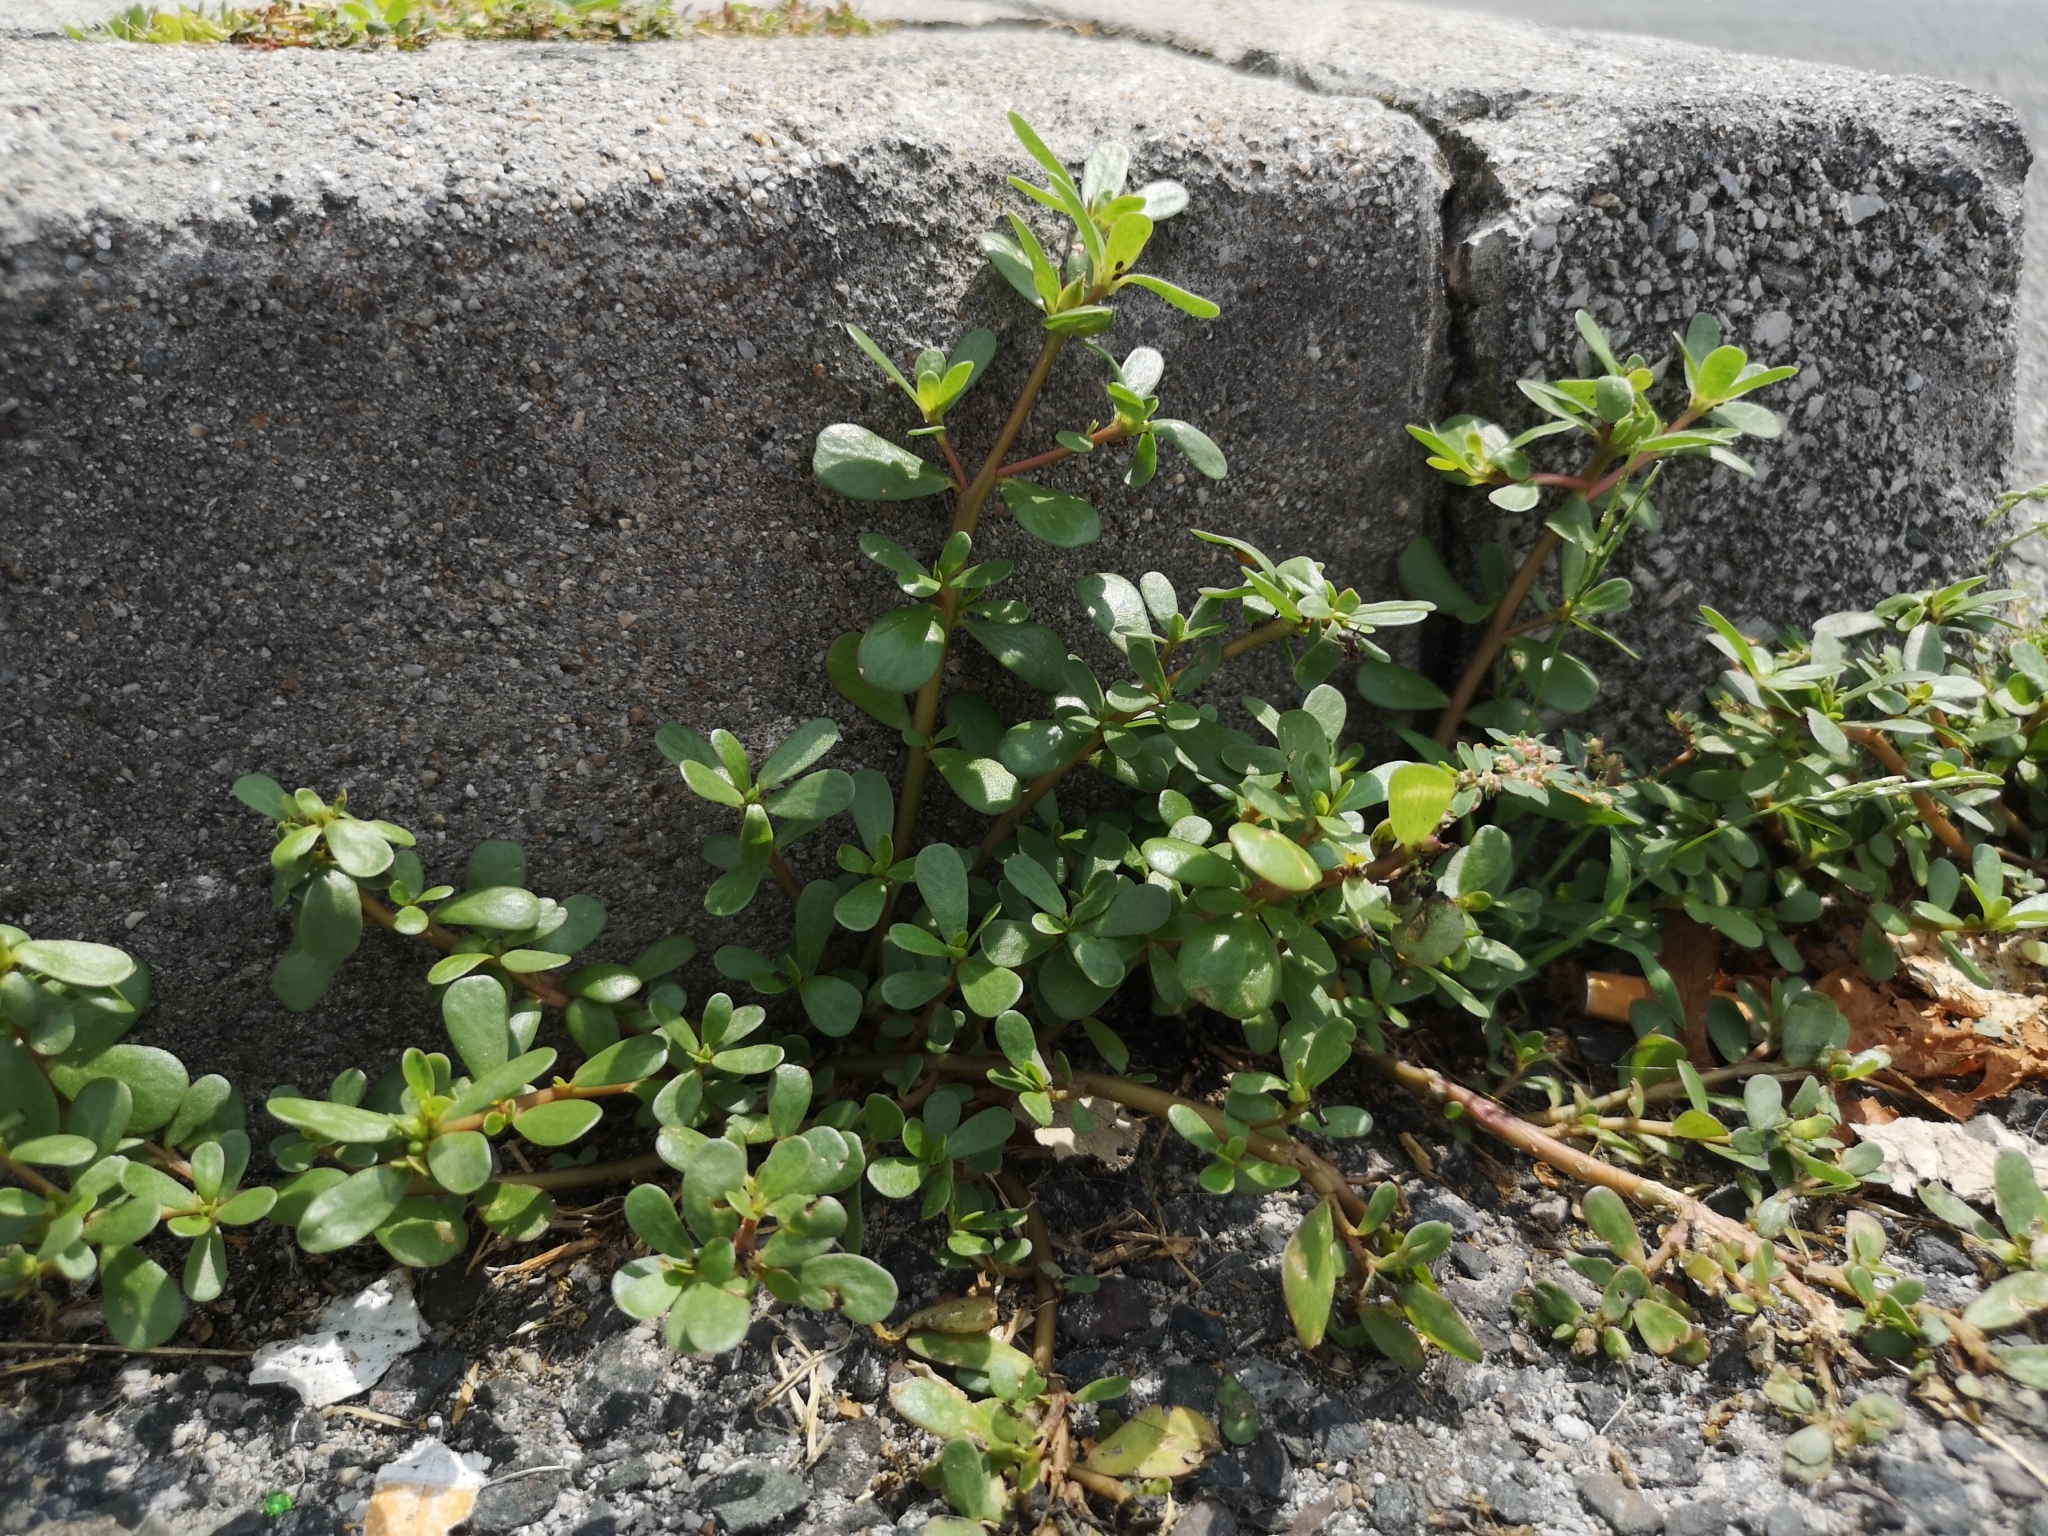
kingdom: Plantae
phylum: Tracheophyta
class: Magnoliopsida
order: Caryophyllales
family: Portulacaceae
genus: Portulaca
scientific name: Portulaca oleracea
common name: Common purslane
